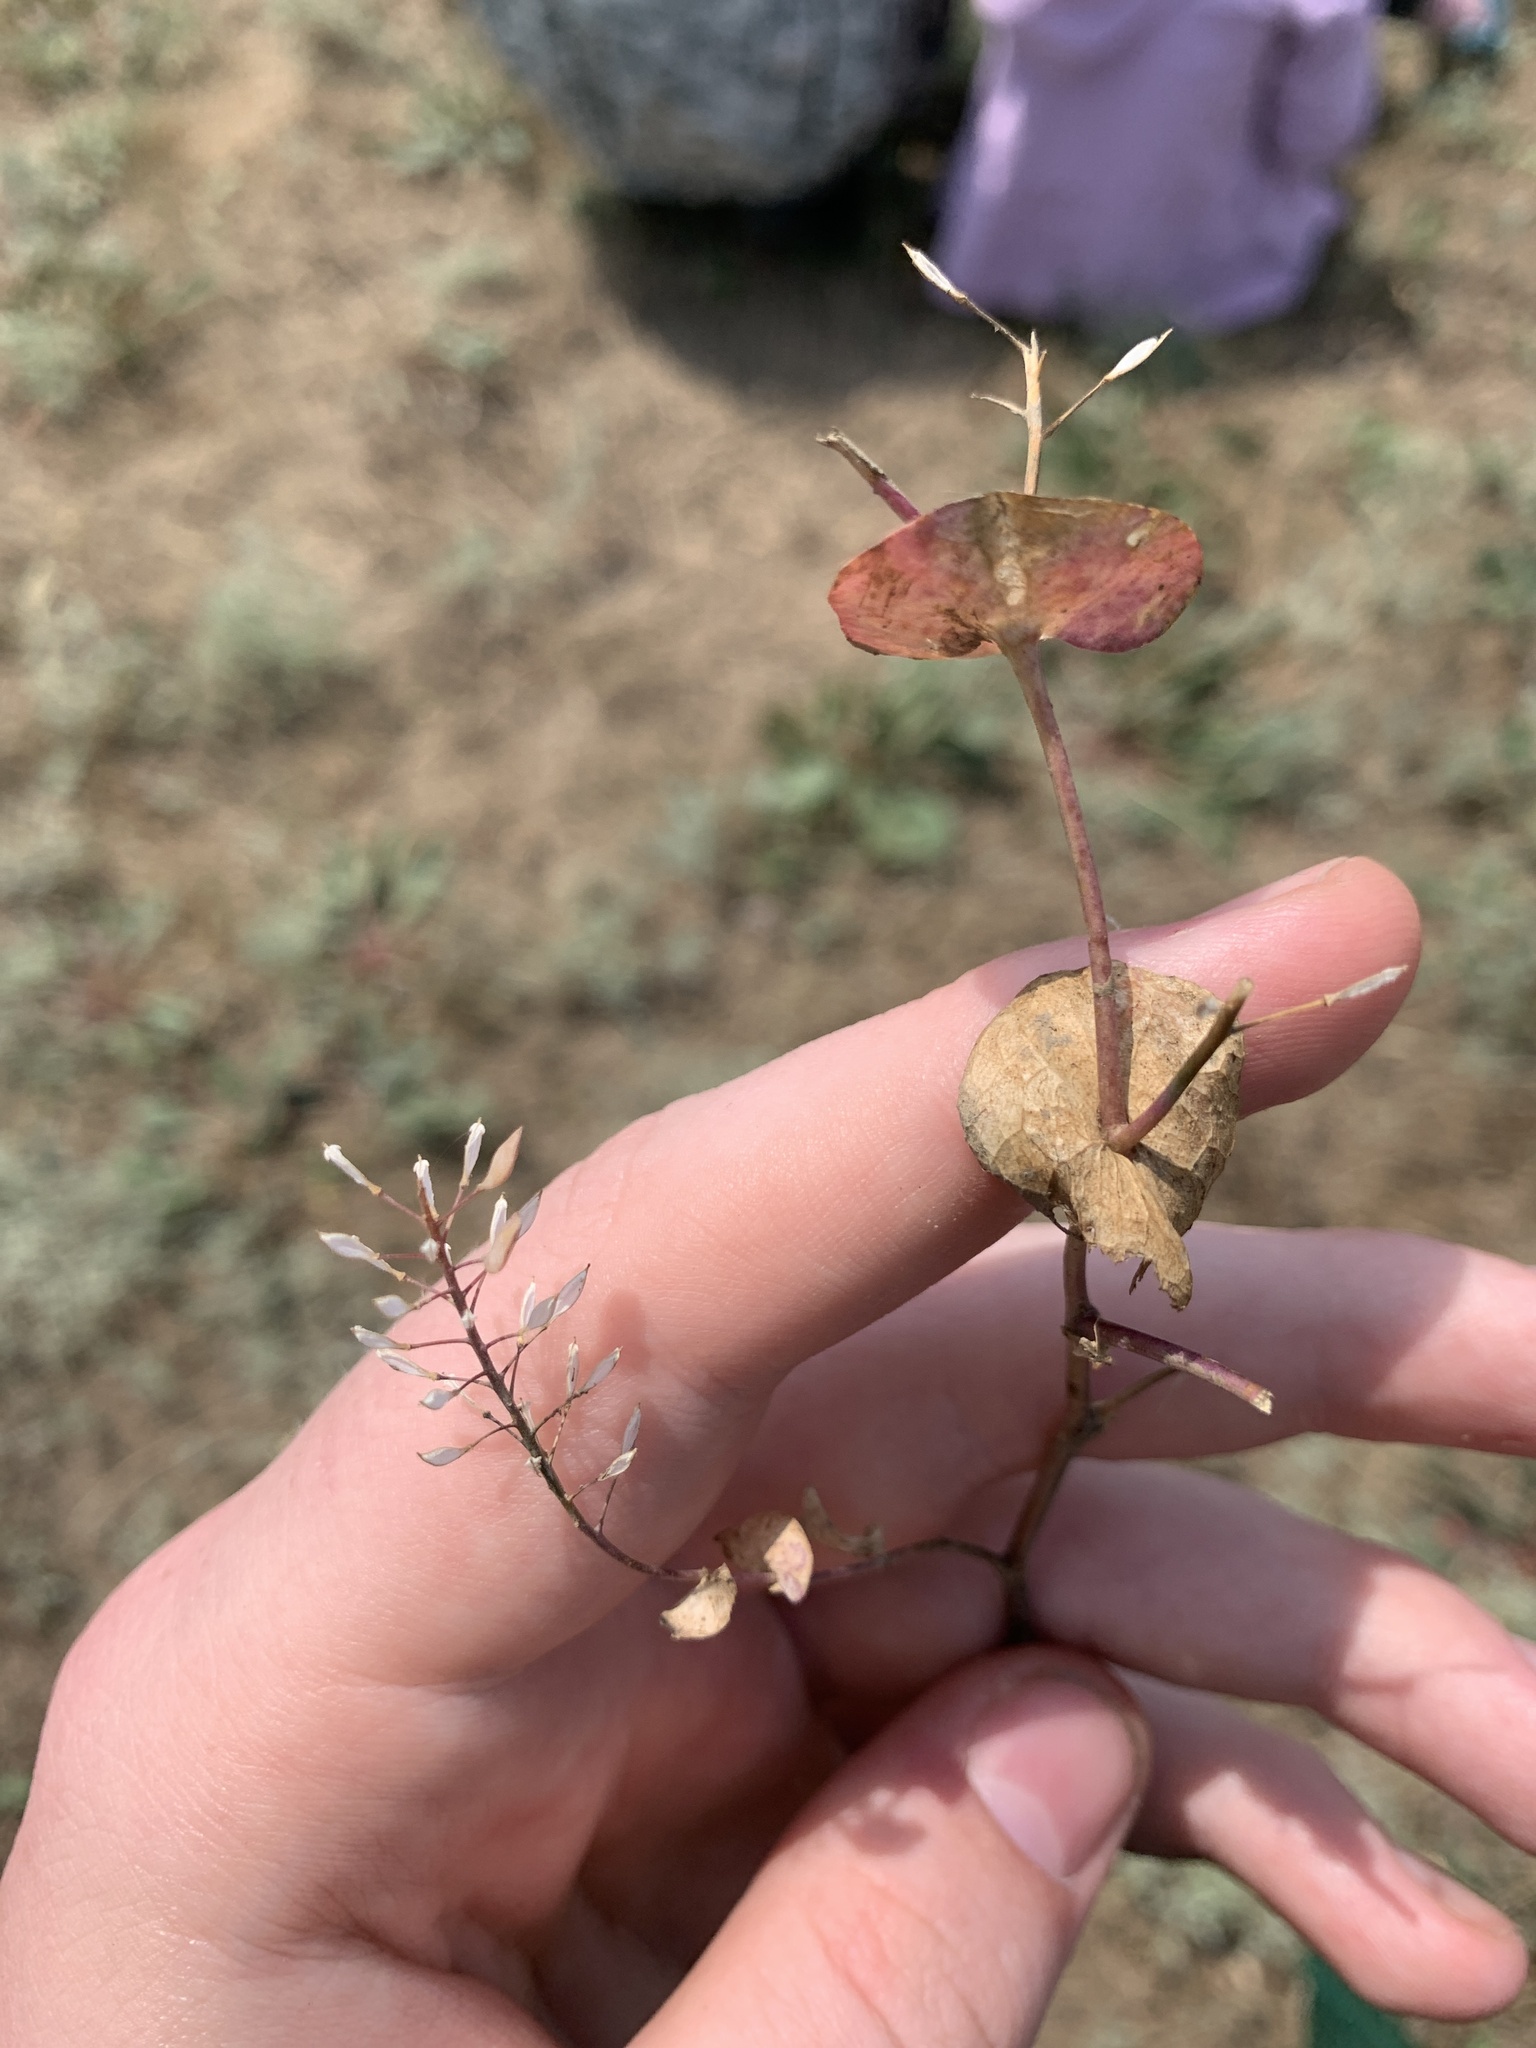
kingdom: Plantae
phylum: Tracheophyta
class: Magnoliopsida
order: Brassicales
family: Brassicaceae
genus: Lepidium
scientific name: Lepidium perfoliatum
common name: Perfoliate pepperwort
